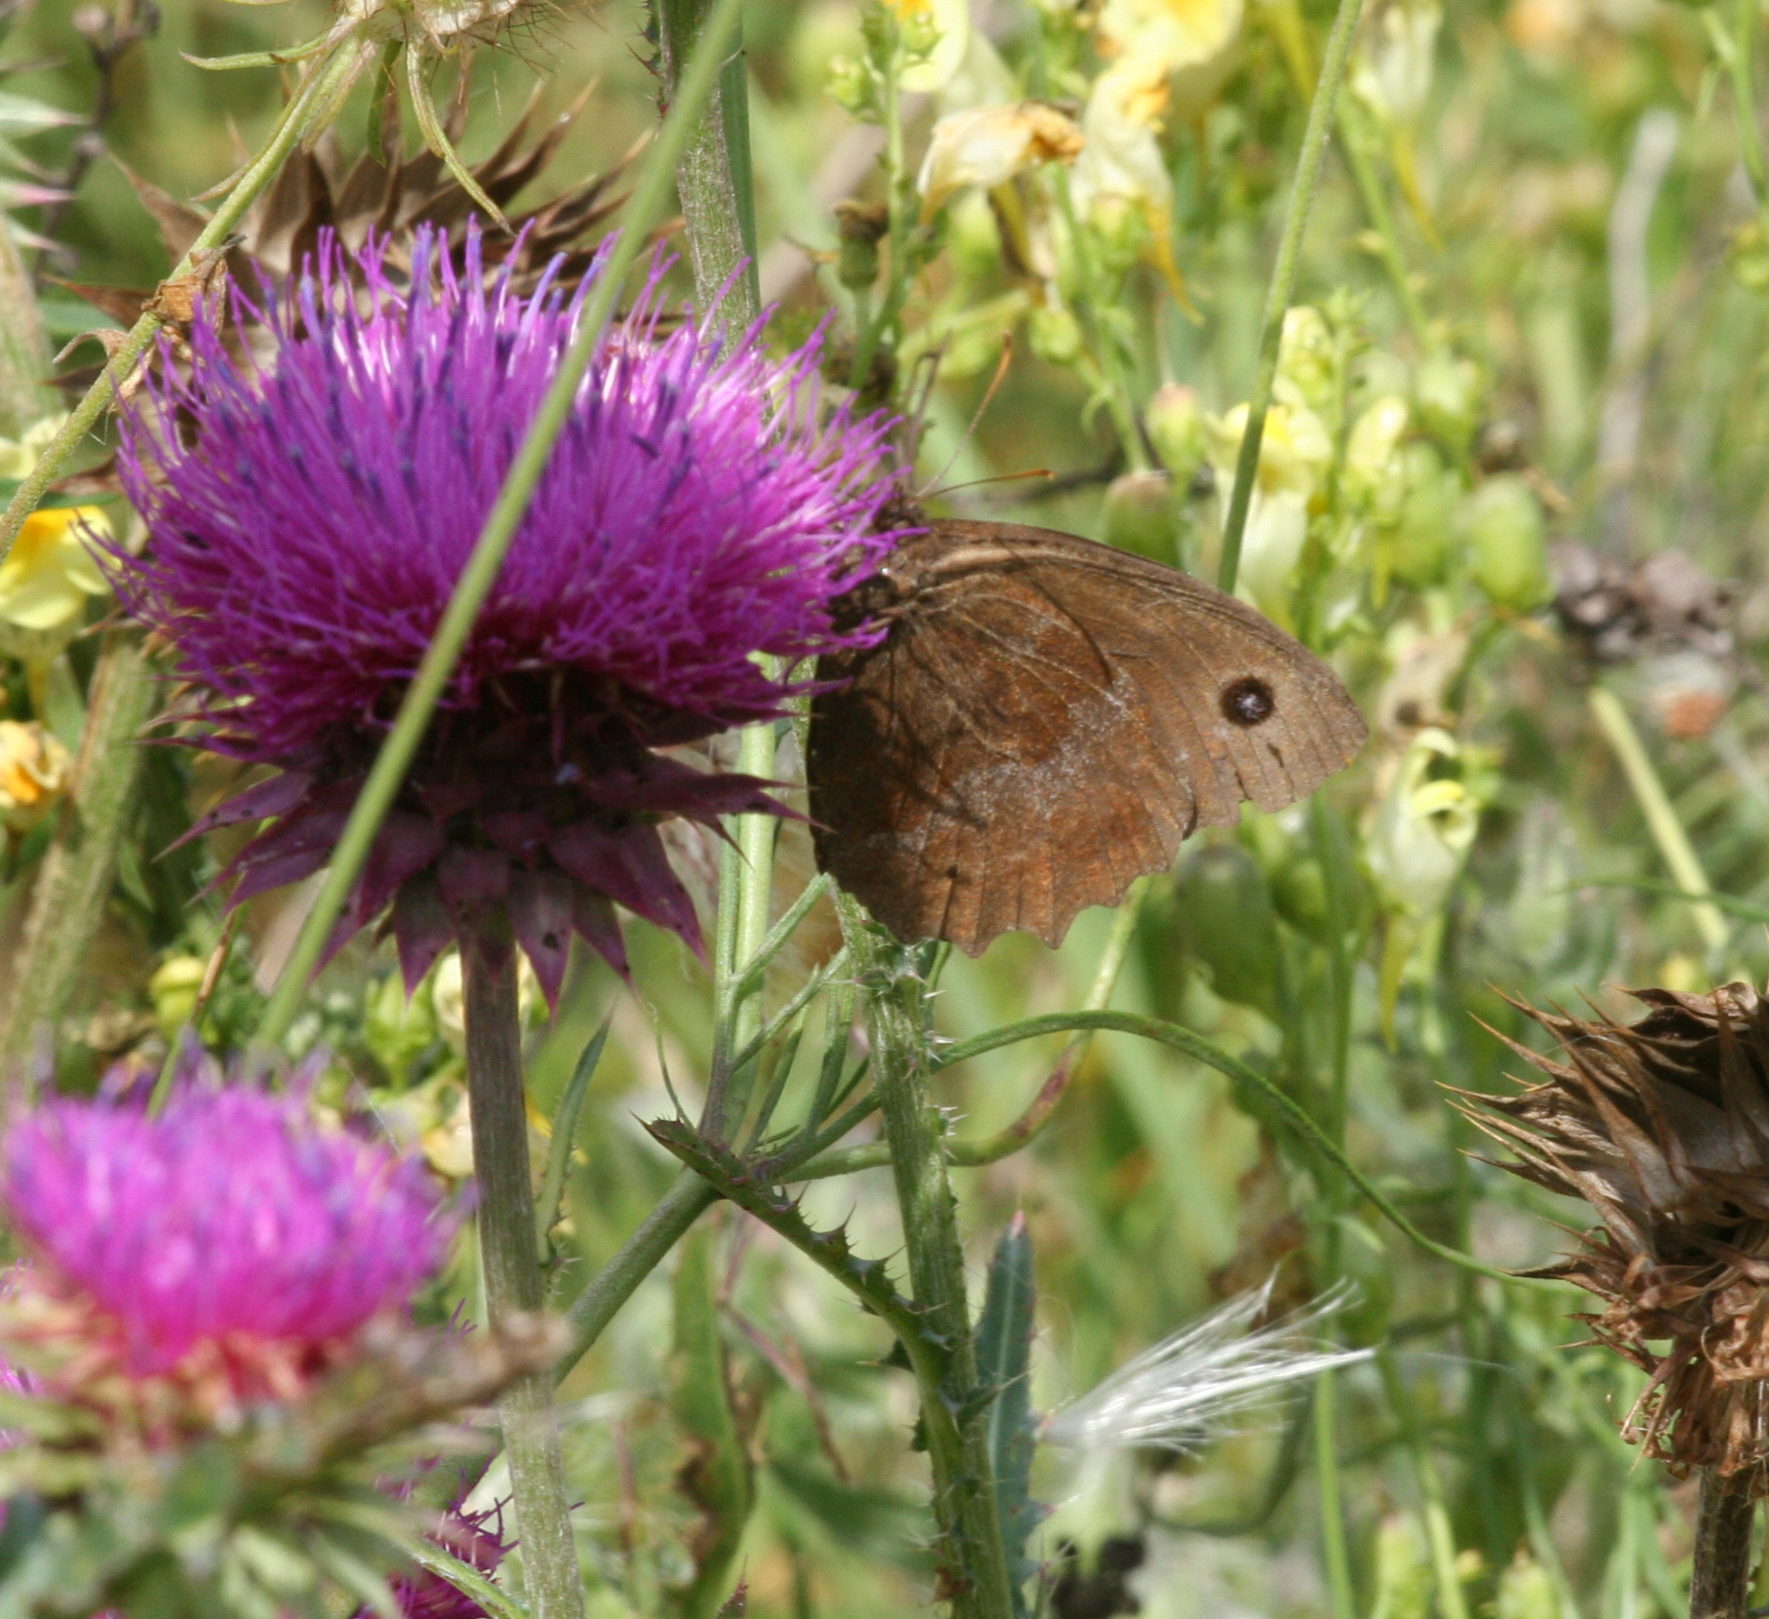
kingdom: Animalia
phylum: Arthropoda
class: Insecta
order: Lepidoptera
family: Nymphalidae
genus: Minois
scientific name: Minois dryas
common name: Dryad
